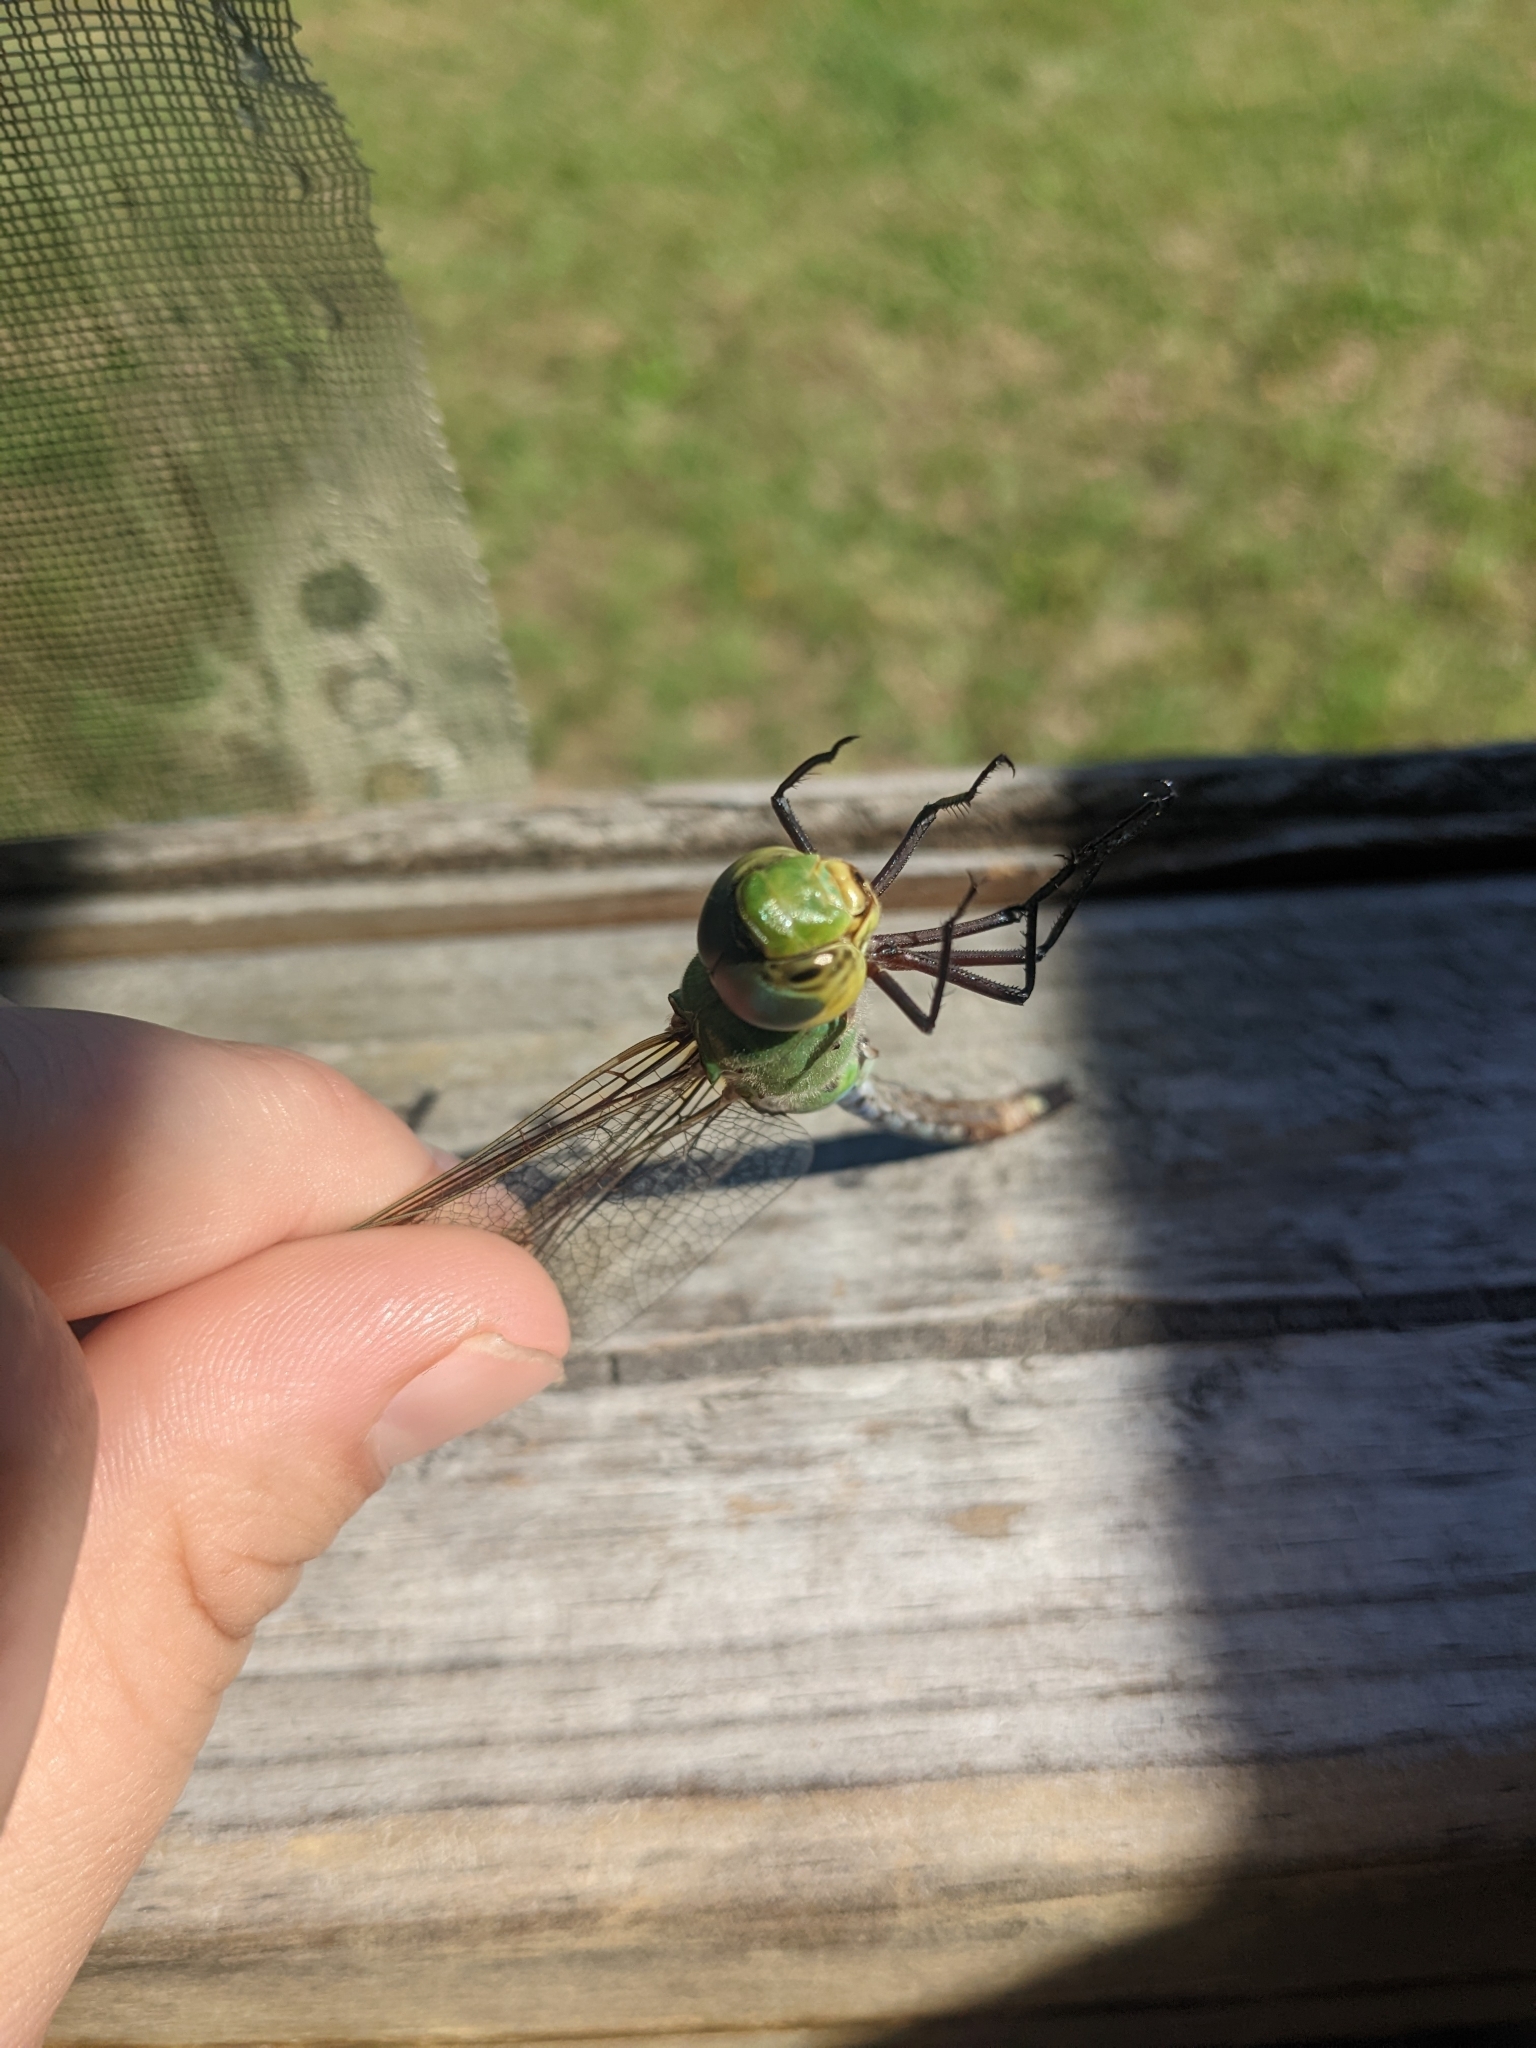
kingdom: Animalia
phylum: Arthropoda
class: Insecta
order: Odonata
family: Aeshnidae
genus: Anax
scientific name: Anax junius
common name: Common green darner
